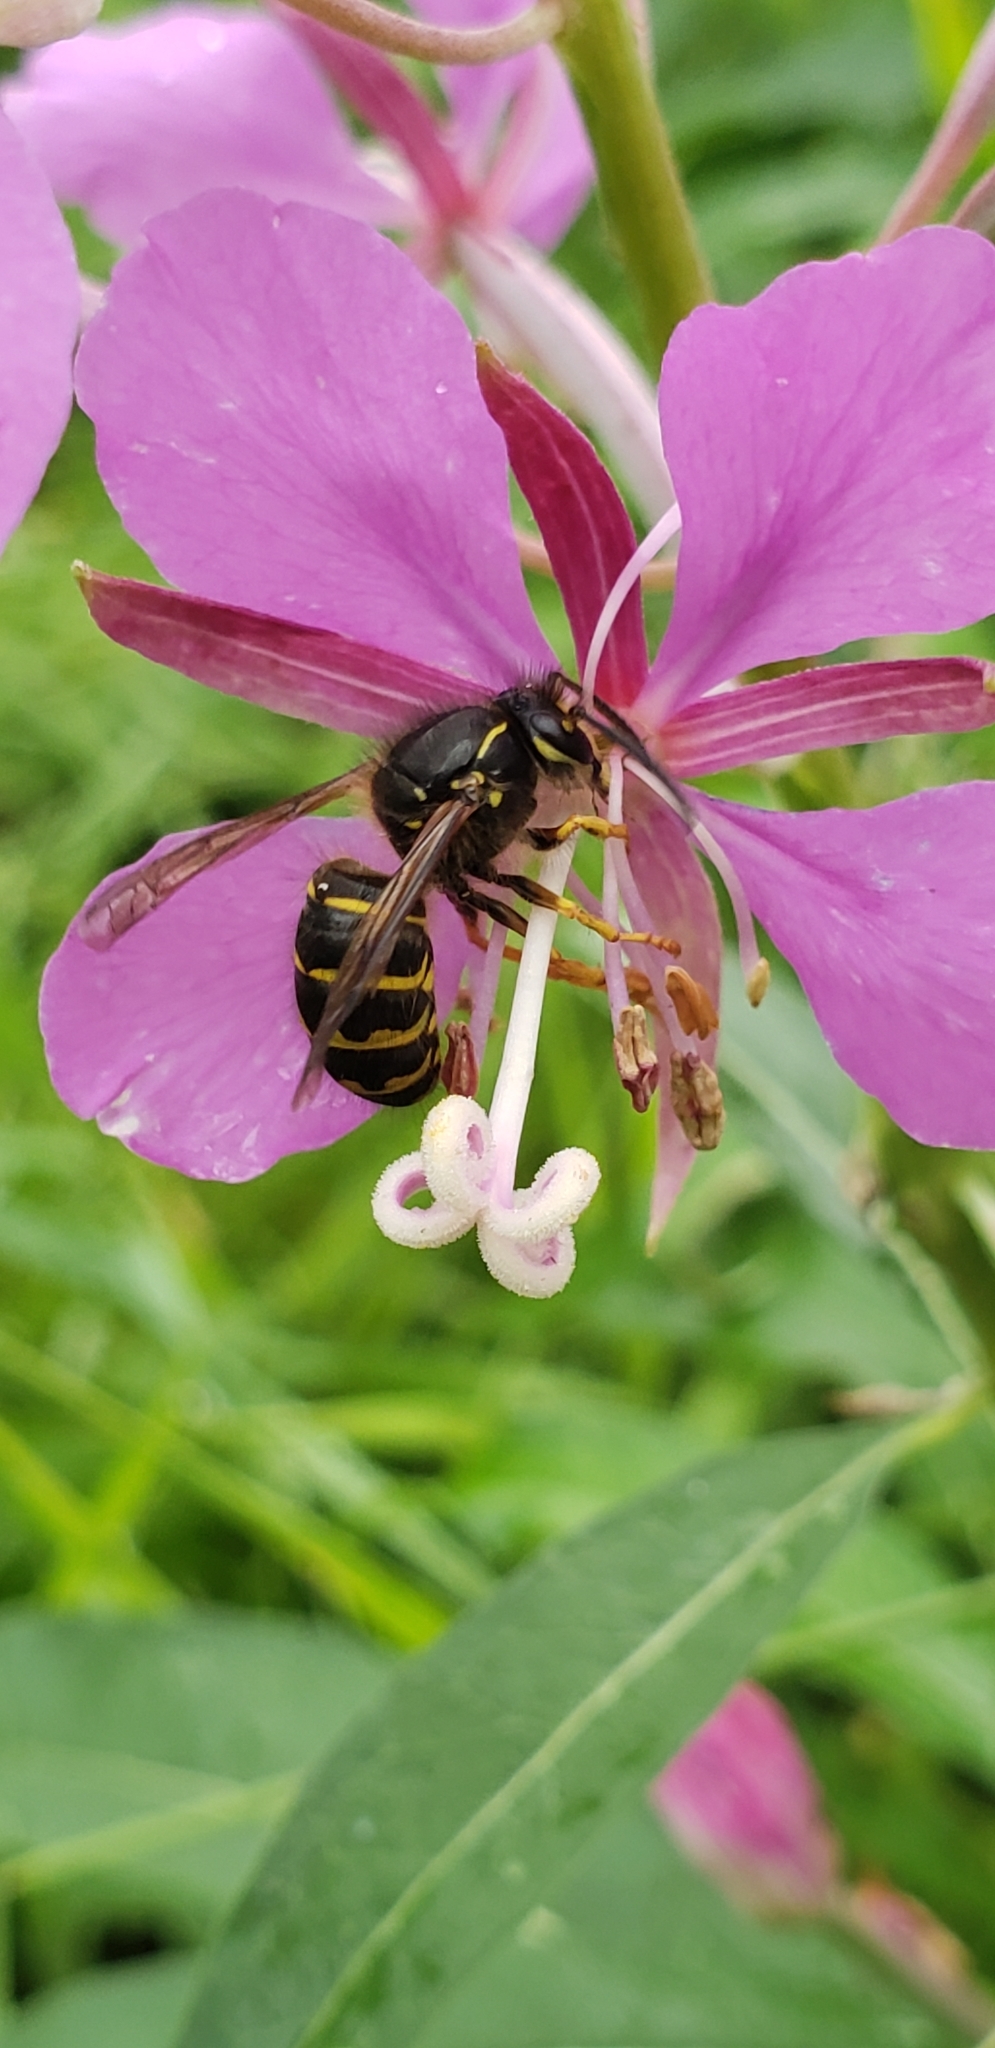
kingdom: Animalia
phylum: Arthropoda
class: Insecta
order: Hymenoptera
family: Vespidae
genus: Dolichovespula
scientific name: Dolichovespula arenaria
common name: Aerial yellowjacket
